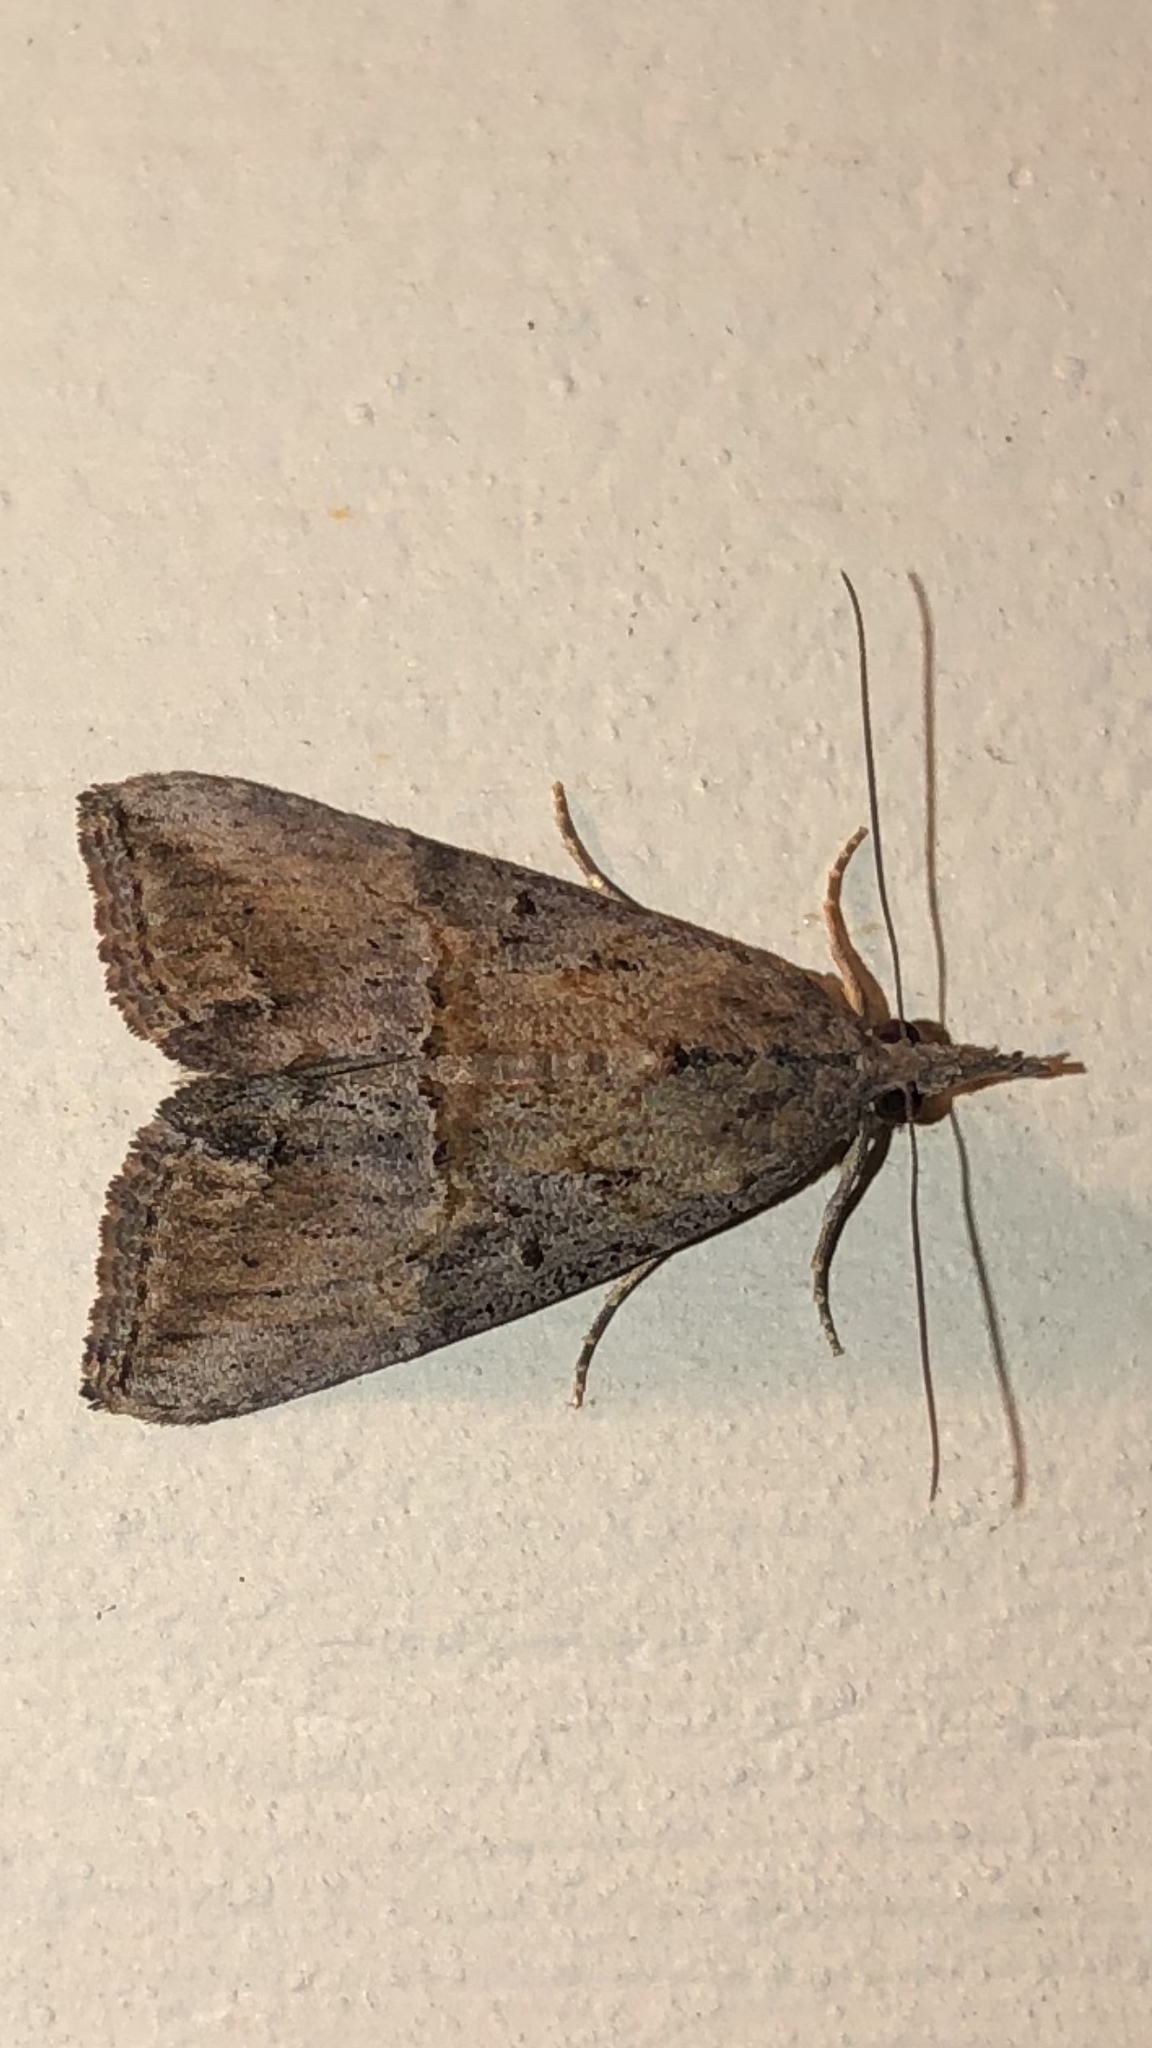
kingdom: Animalia
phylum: Arthropoda
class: Insecta
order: Lepidoptera
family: Erebidae
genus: Hypena
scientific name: Hypena scabra
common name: Green cloverworm
